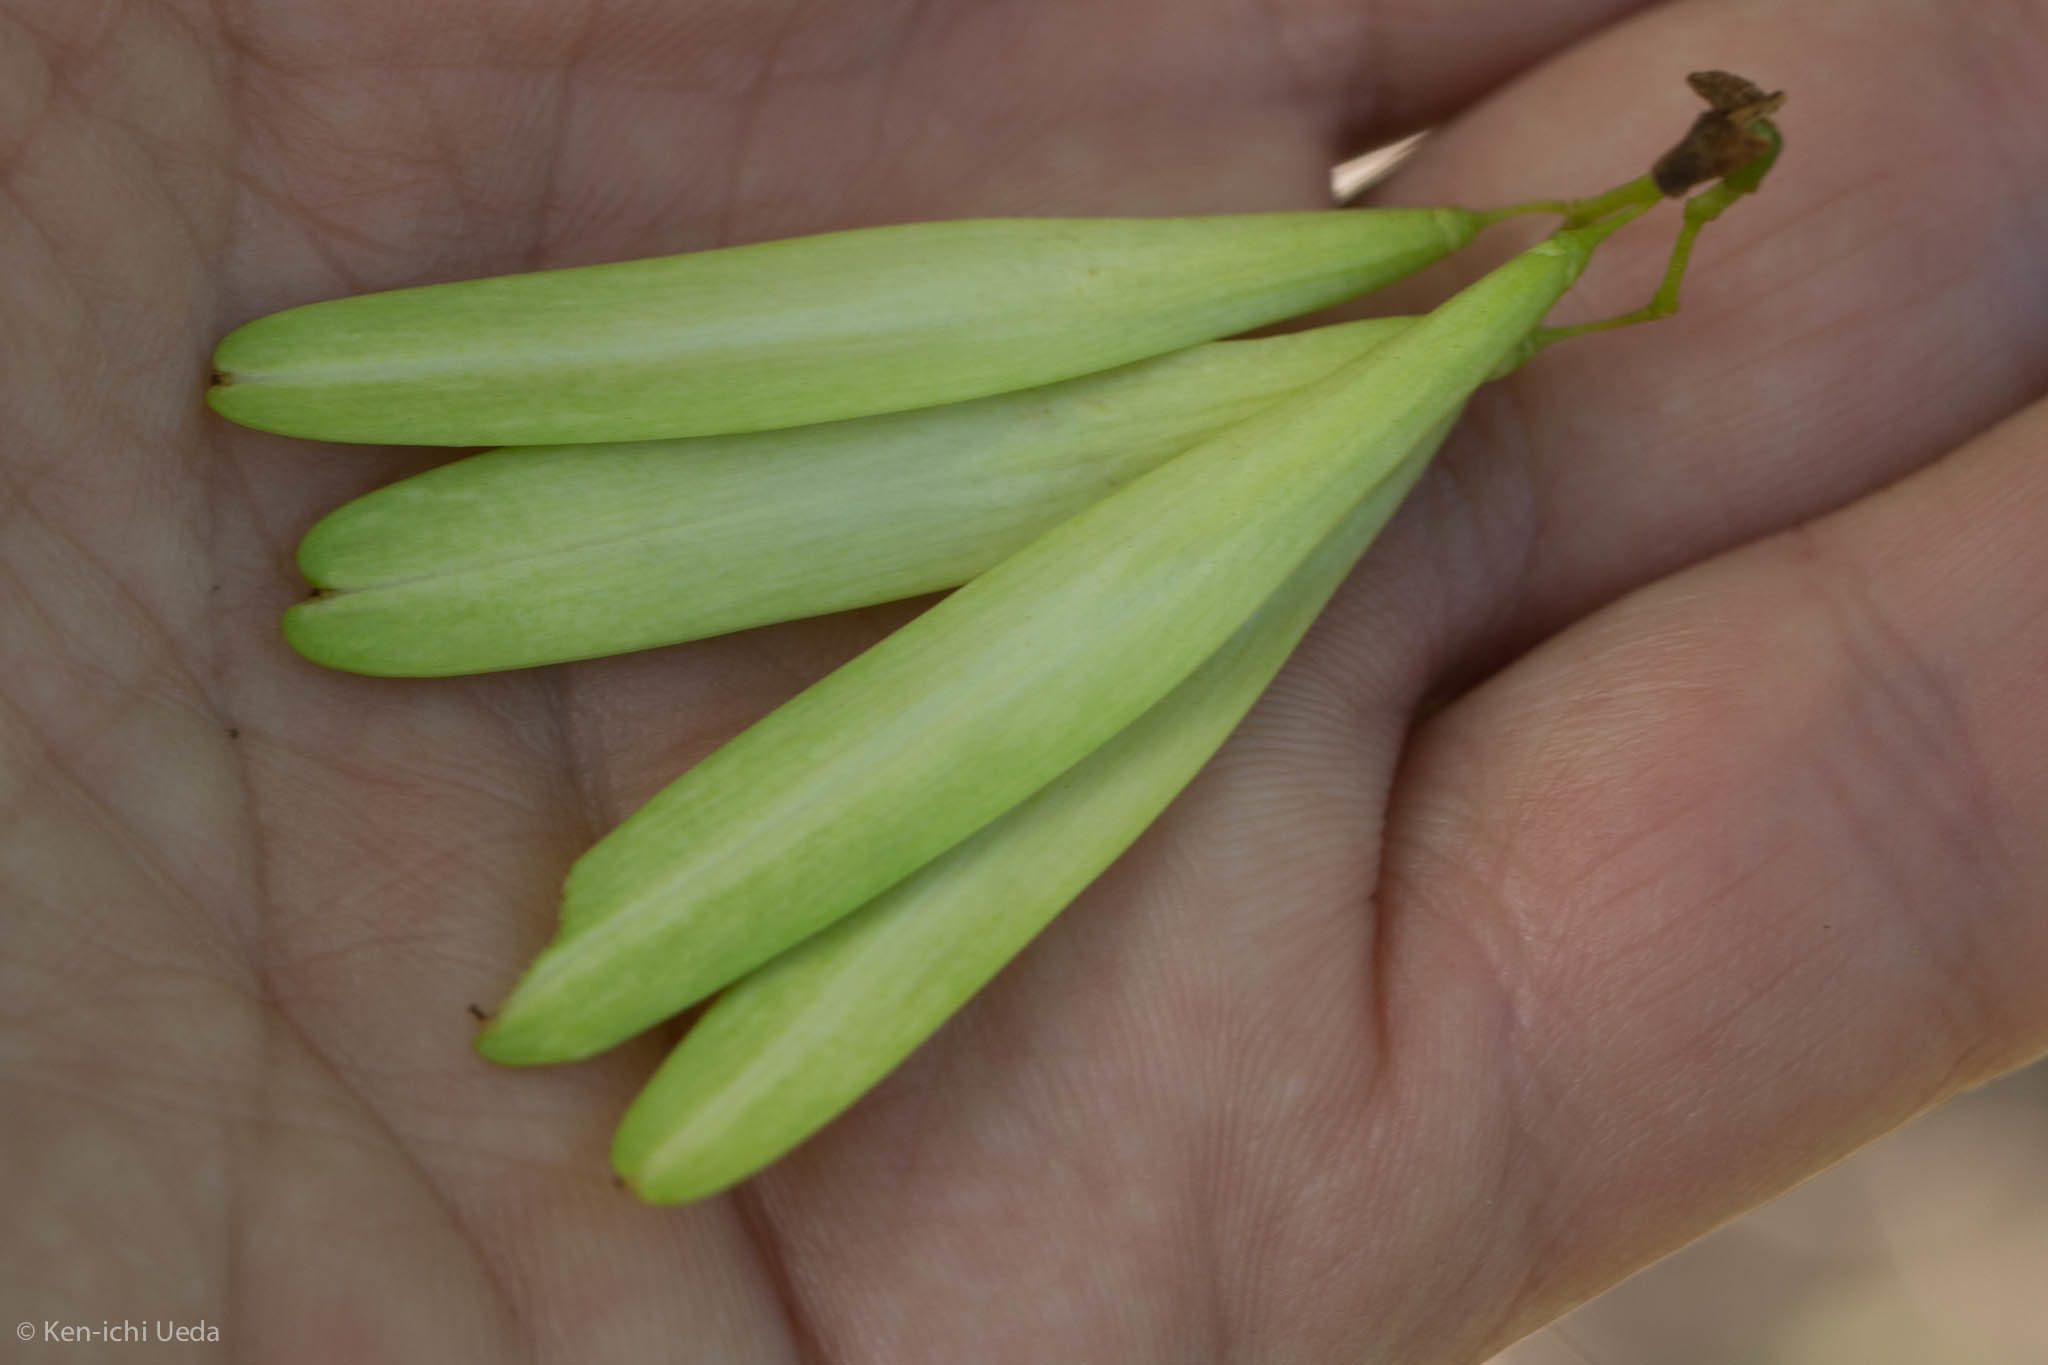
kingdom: Plantae
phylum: Tracheophyta
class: Magnoliopsida
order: Lamiales
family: Oleaceae
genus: Fraxinus
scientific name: Fraxinus latifolia
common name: Oregon ash
